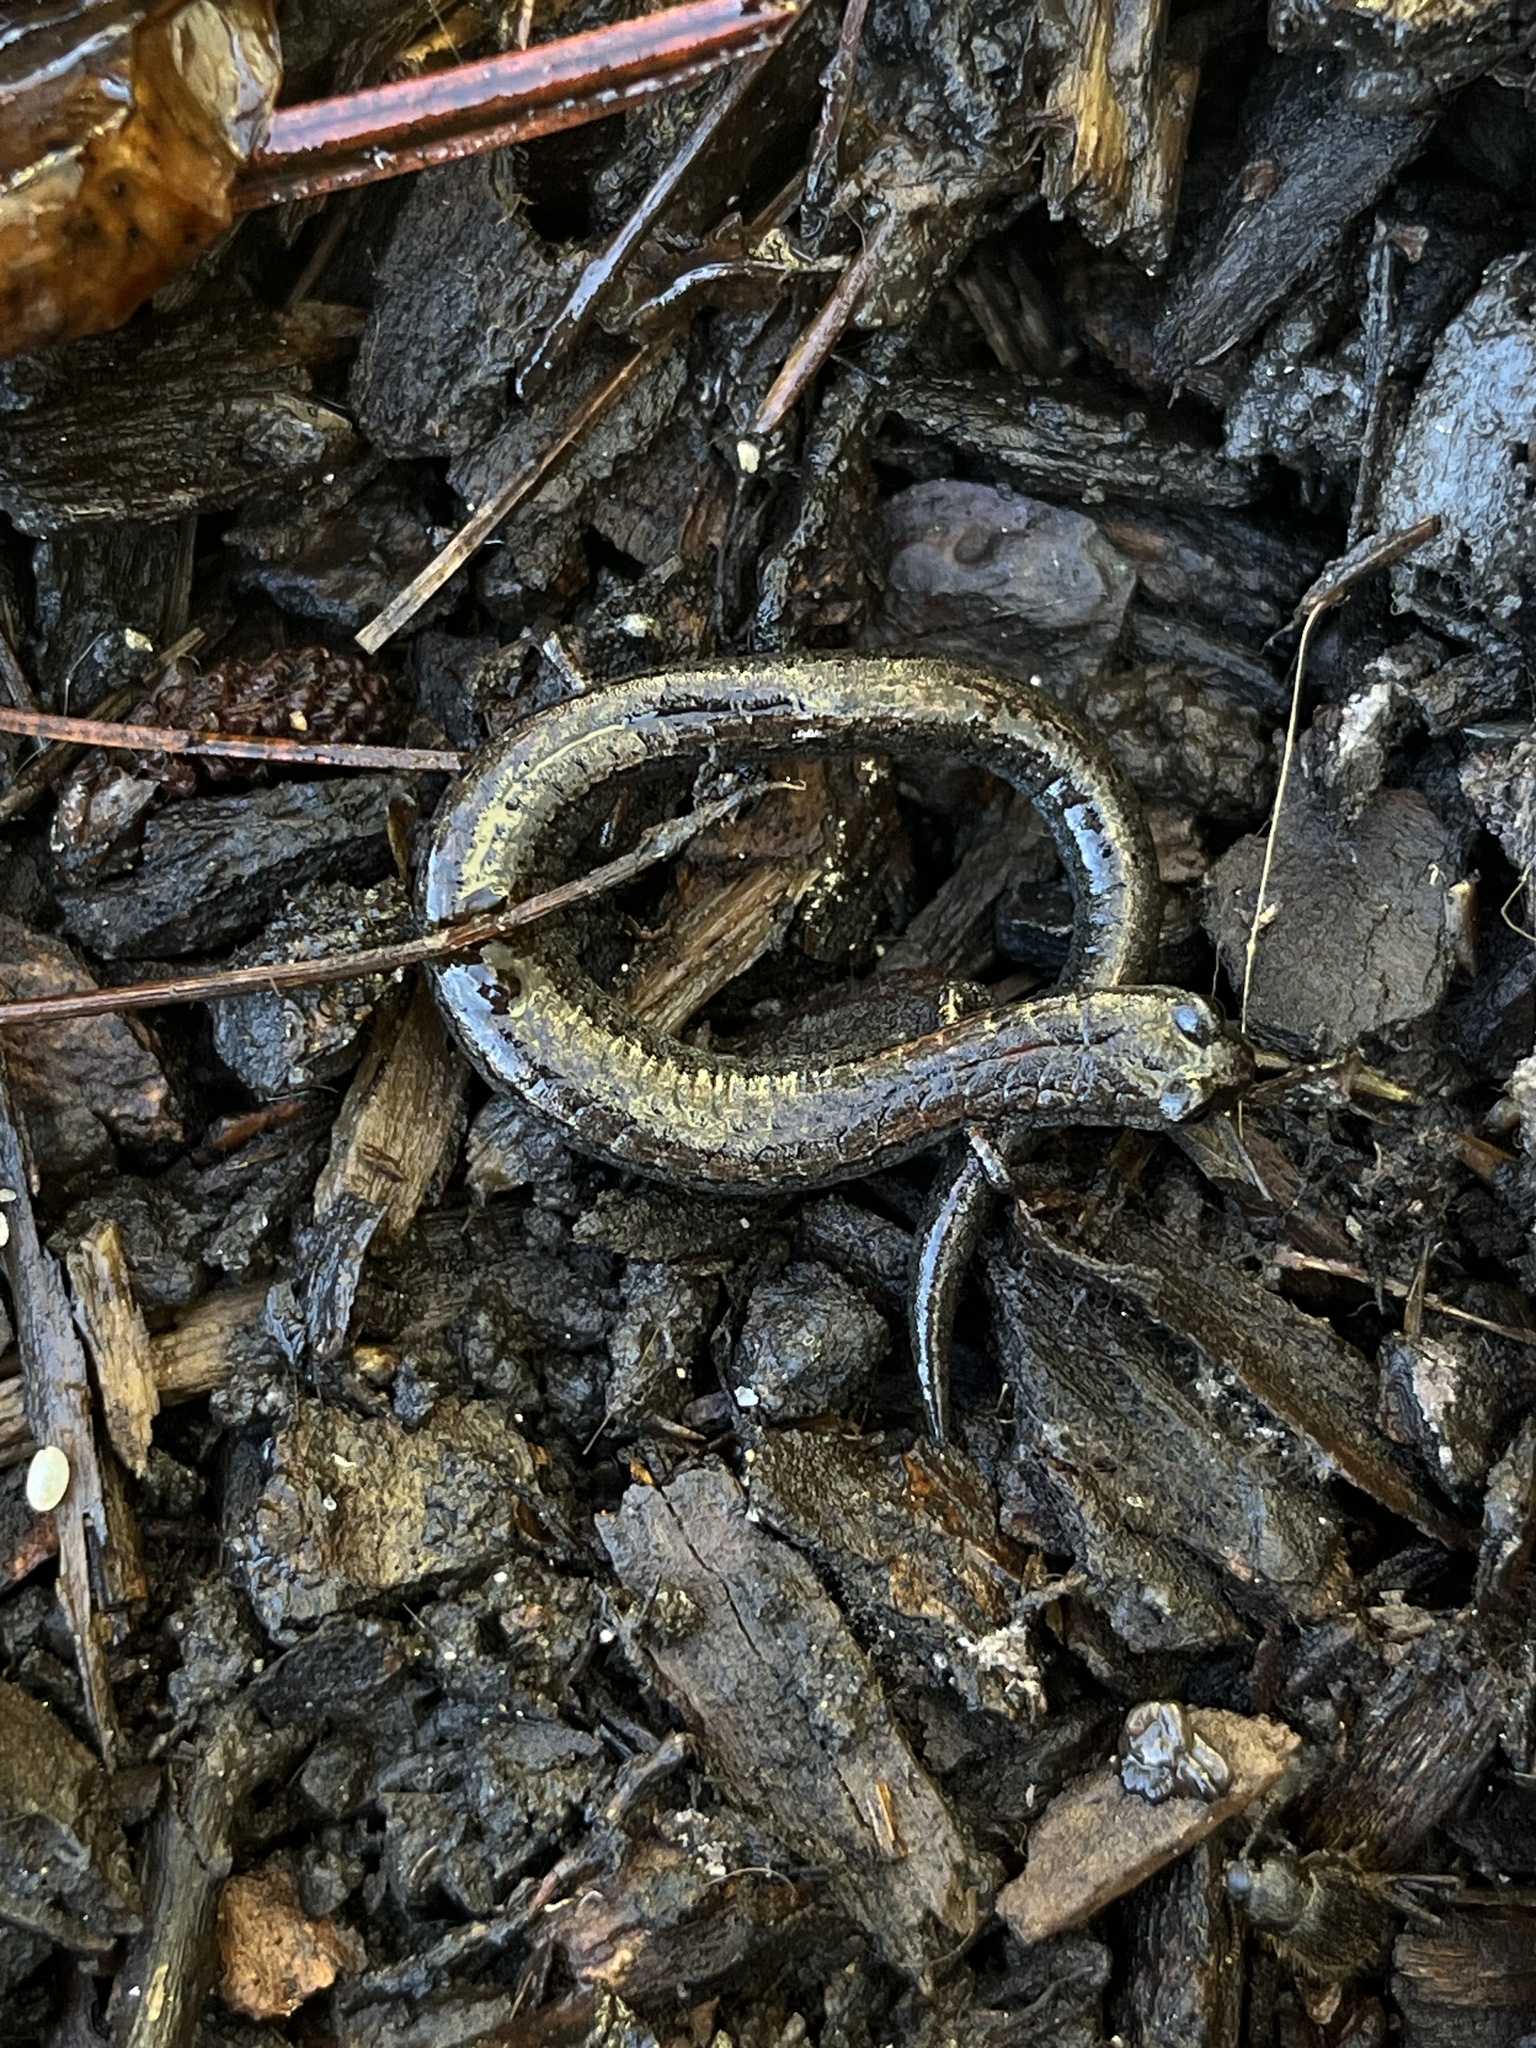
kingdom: Animalia
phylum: Chordata
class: Amphibia
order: Caudata
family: Plethodontidae
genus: Batrachoseps
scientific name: Batrachoseps attenuatus
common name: California slender salamander
